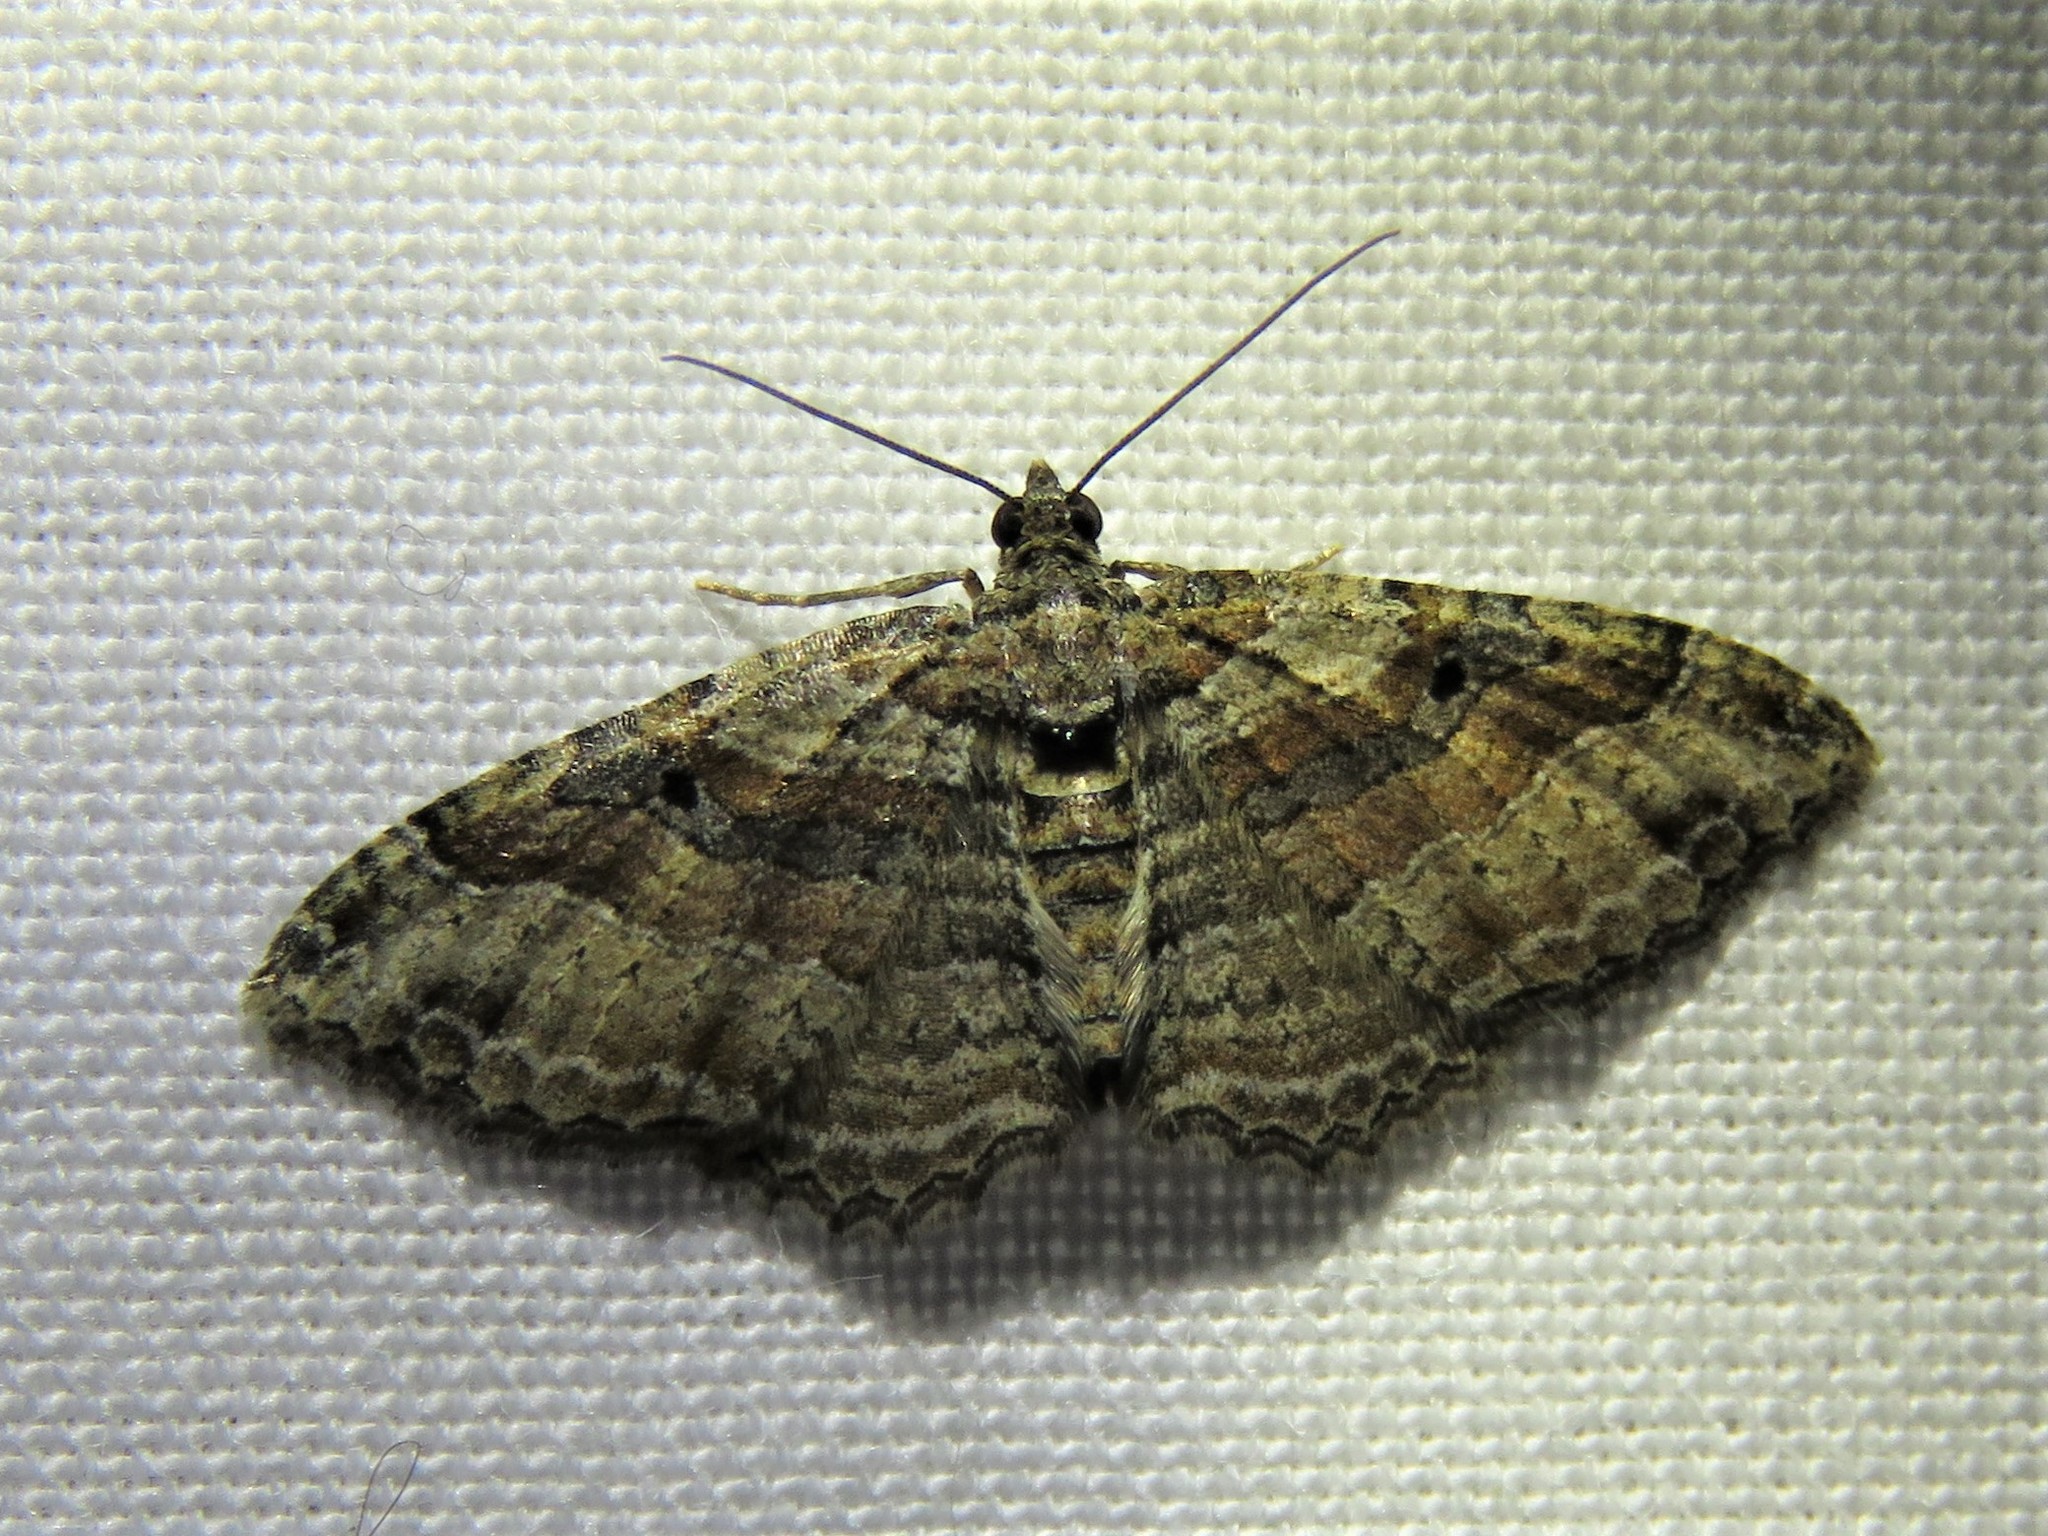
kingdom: Animalia
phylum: Arthropoda
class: Insecta
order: Lepidoptera
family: Geometridae
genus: Costaconvexa
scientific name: Costaconvexa centrostrigaria
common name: Bent-line carpet
